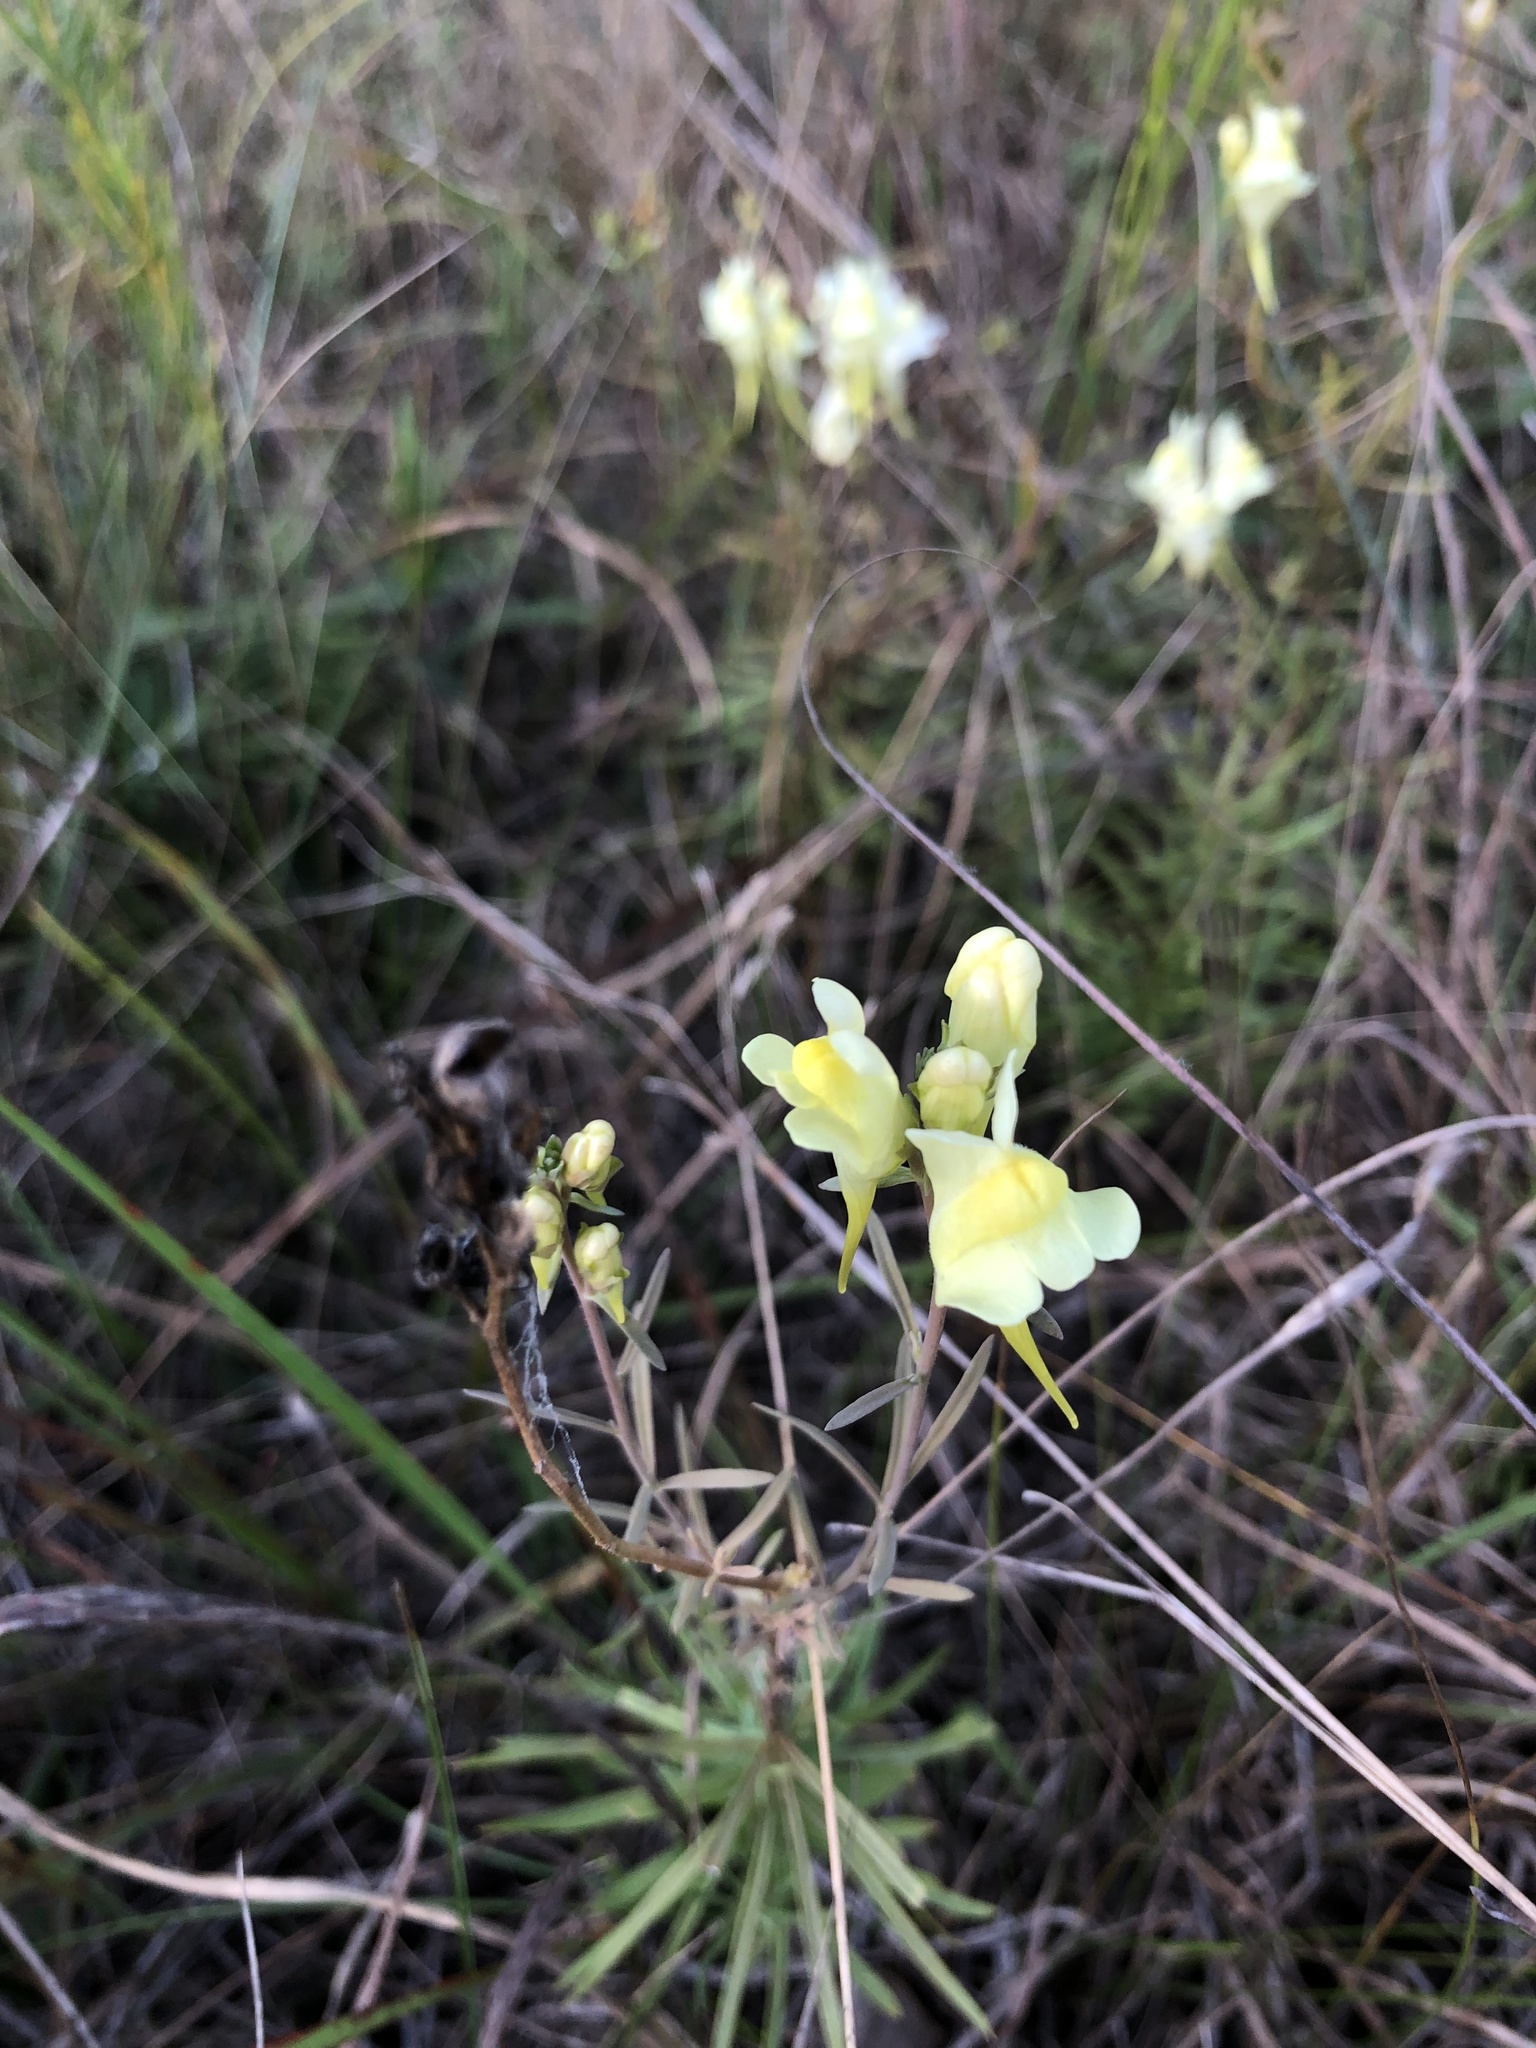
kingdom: Plantae
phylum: Tracheophyta
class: Magnoliopsida
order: Lamiales
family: Plantaginaceae
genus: Linaria
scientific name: Linaria vulgaris
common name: Butter and eggs
